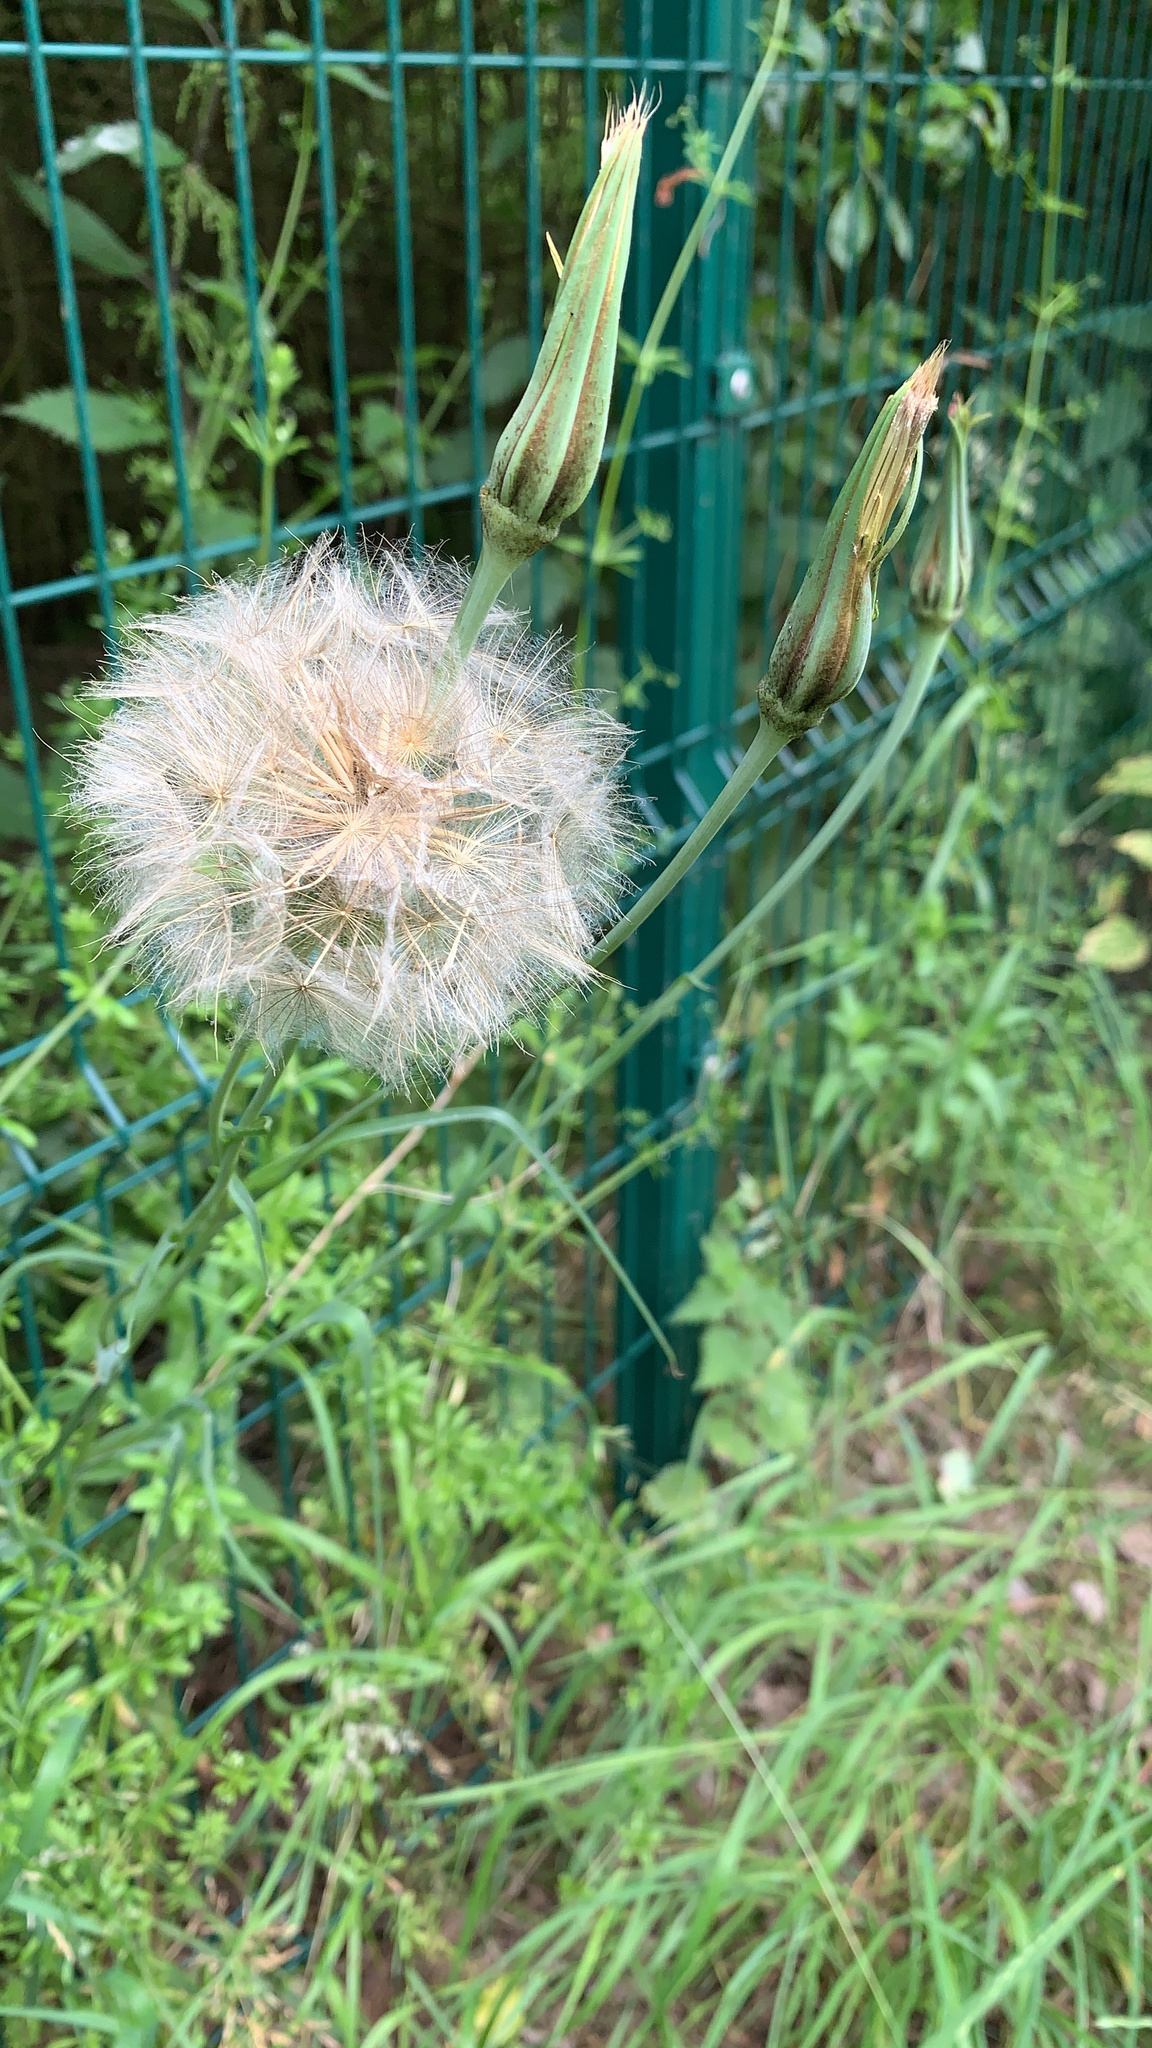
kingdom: Plantae
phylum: Tracheophyta
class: Magnoliopsida
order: Asterales
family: Asteraceae
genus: Tragopogon
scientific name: Tragopogon pratensis
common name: Goat's-beard
